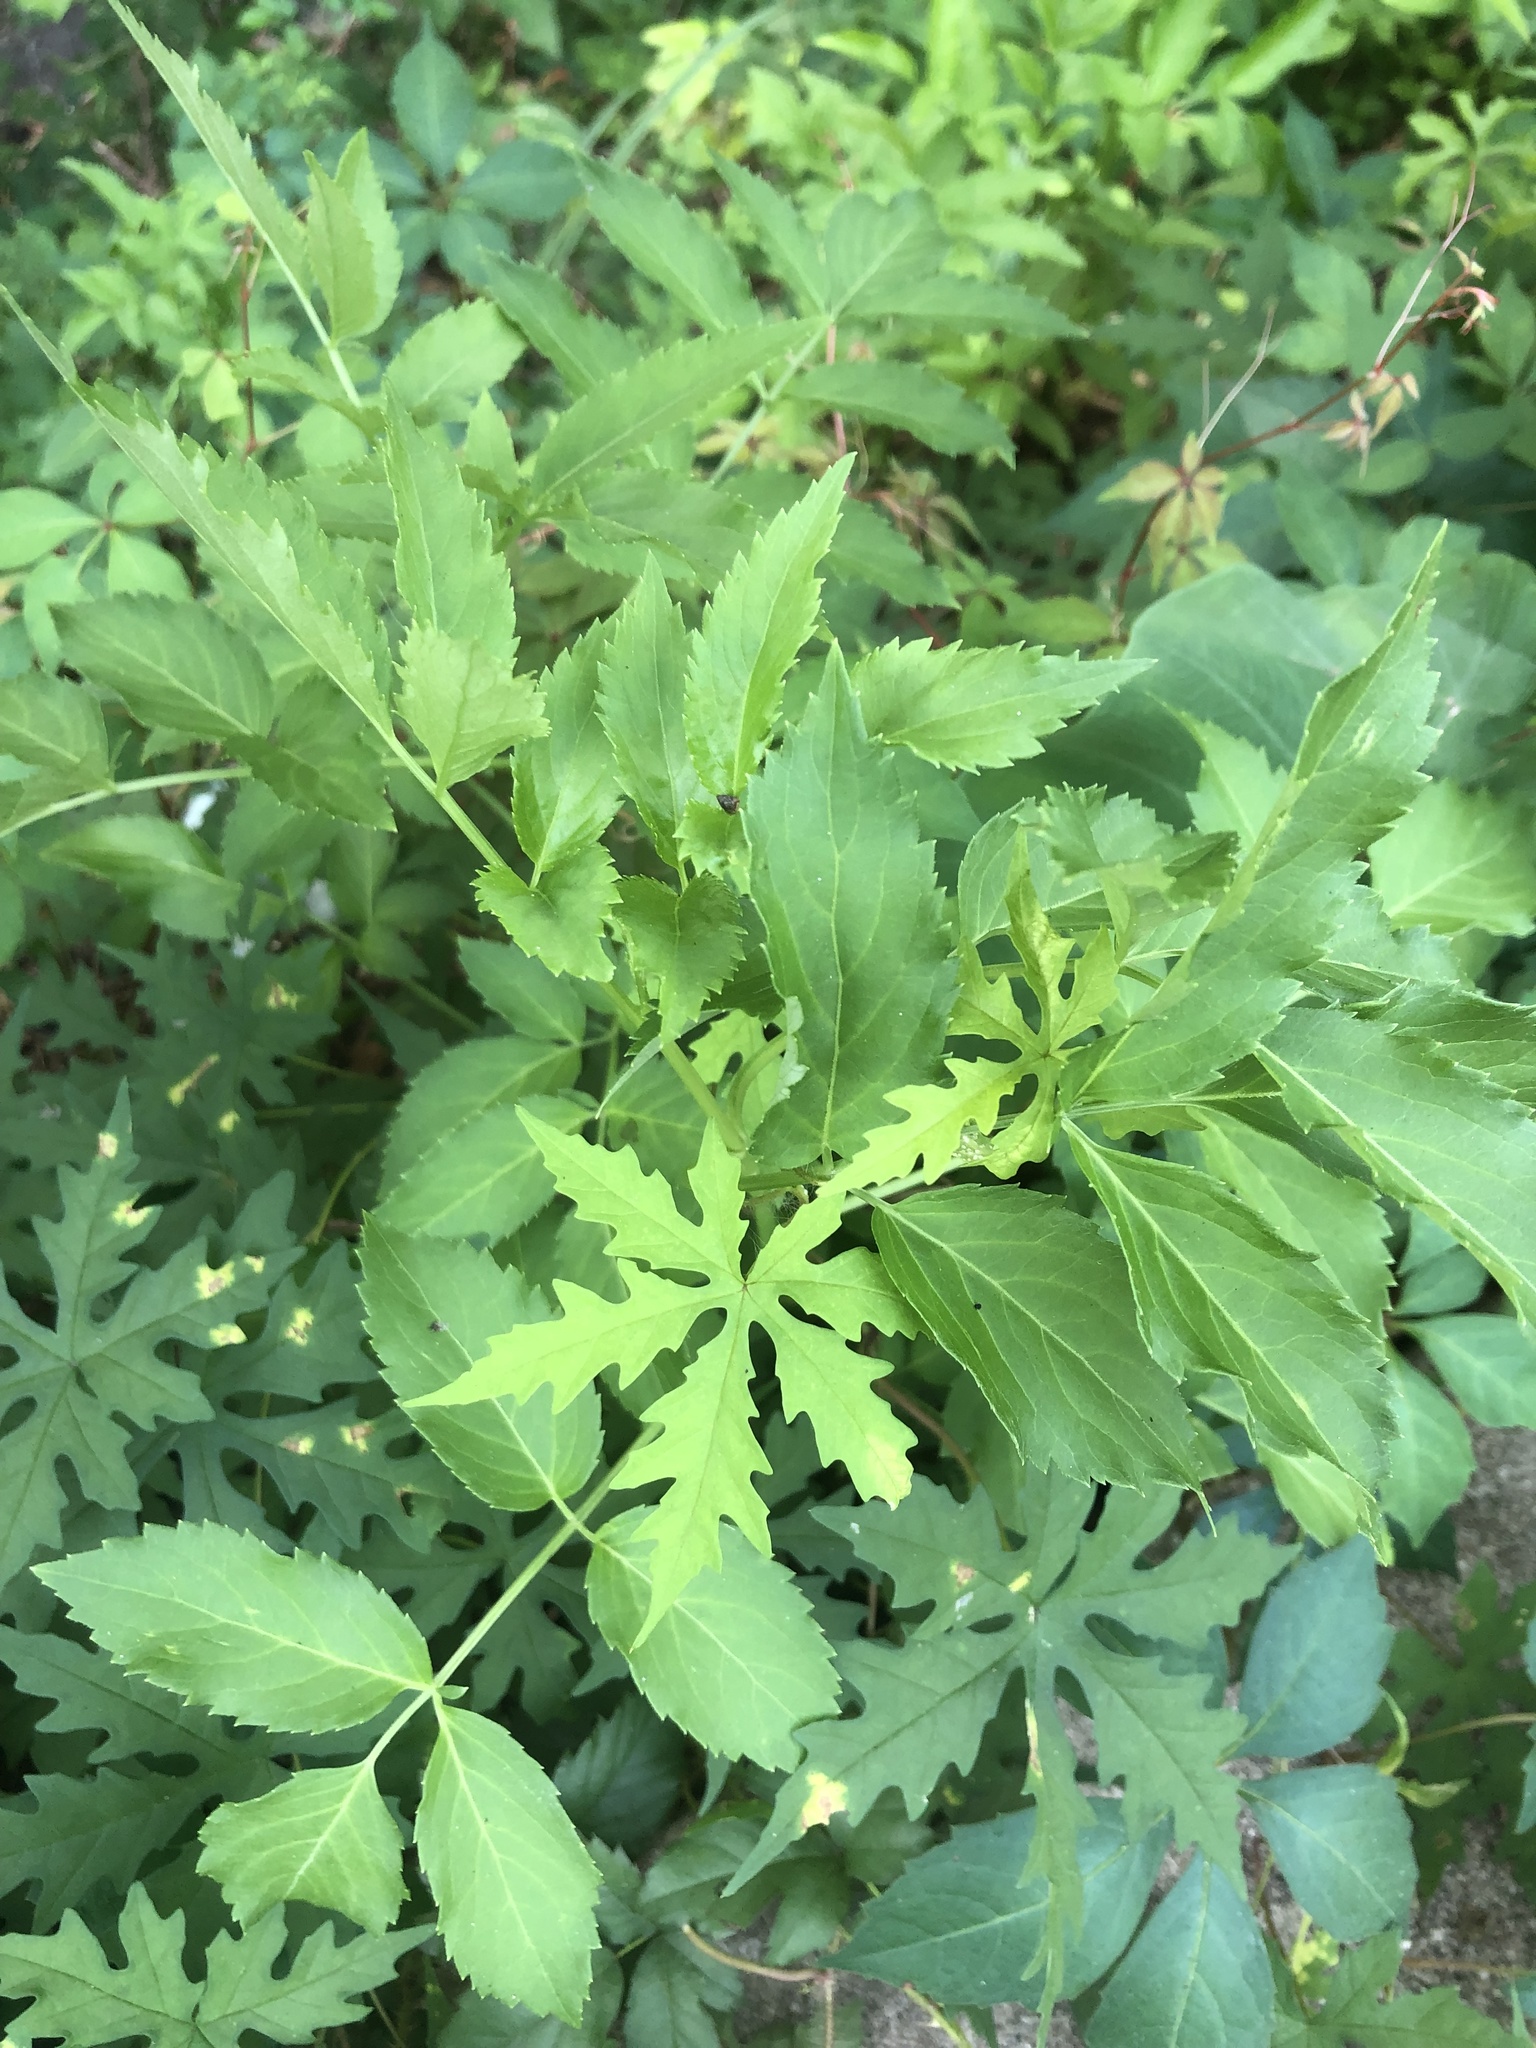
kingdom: Plantae
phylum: Tracheophyta
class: Magnoliopsida
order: Solanales
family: Convolvulaceae
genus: Distimake
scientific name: Distimake dissectus
